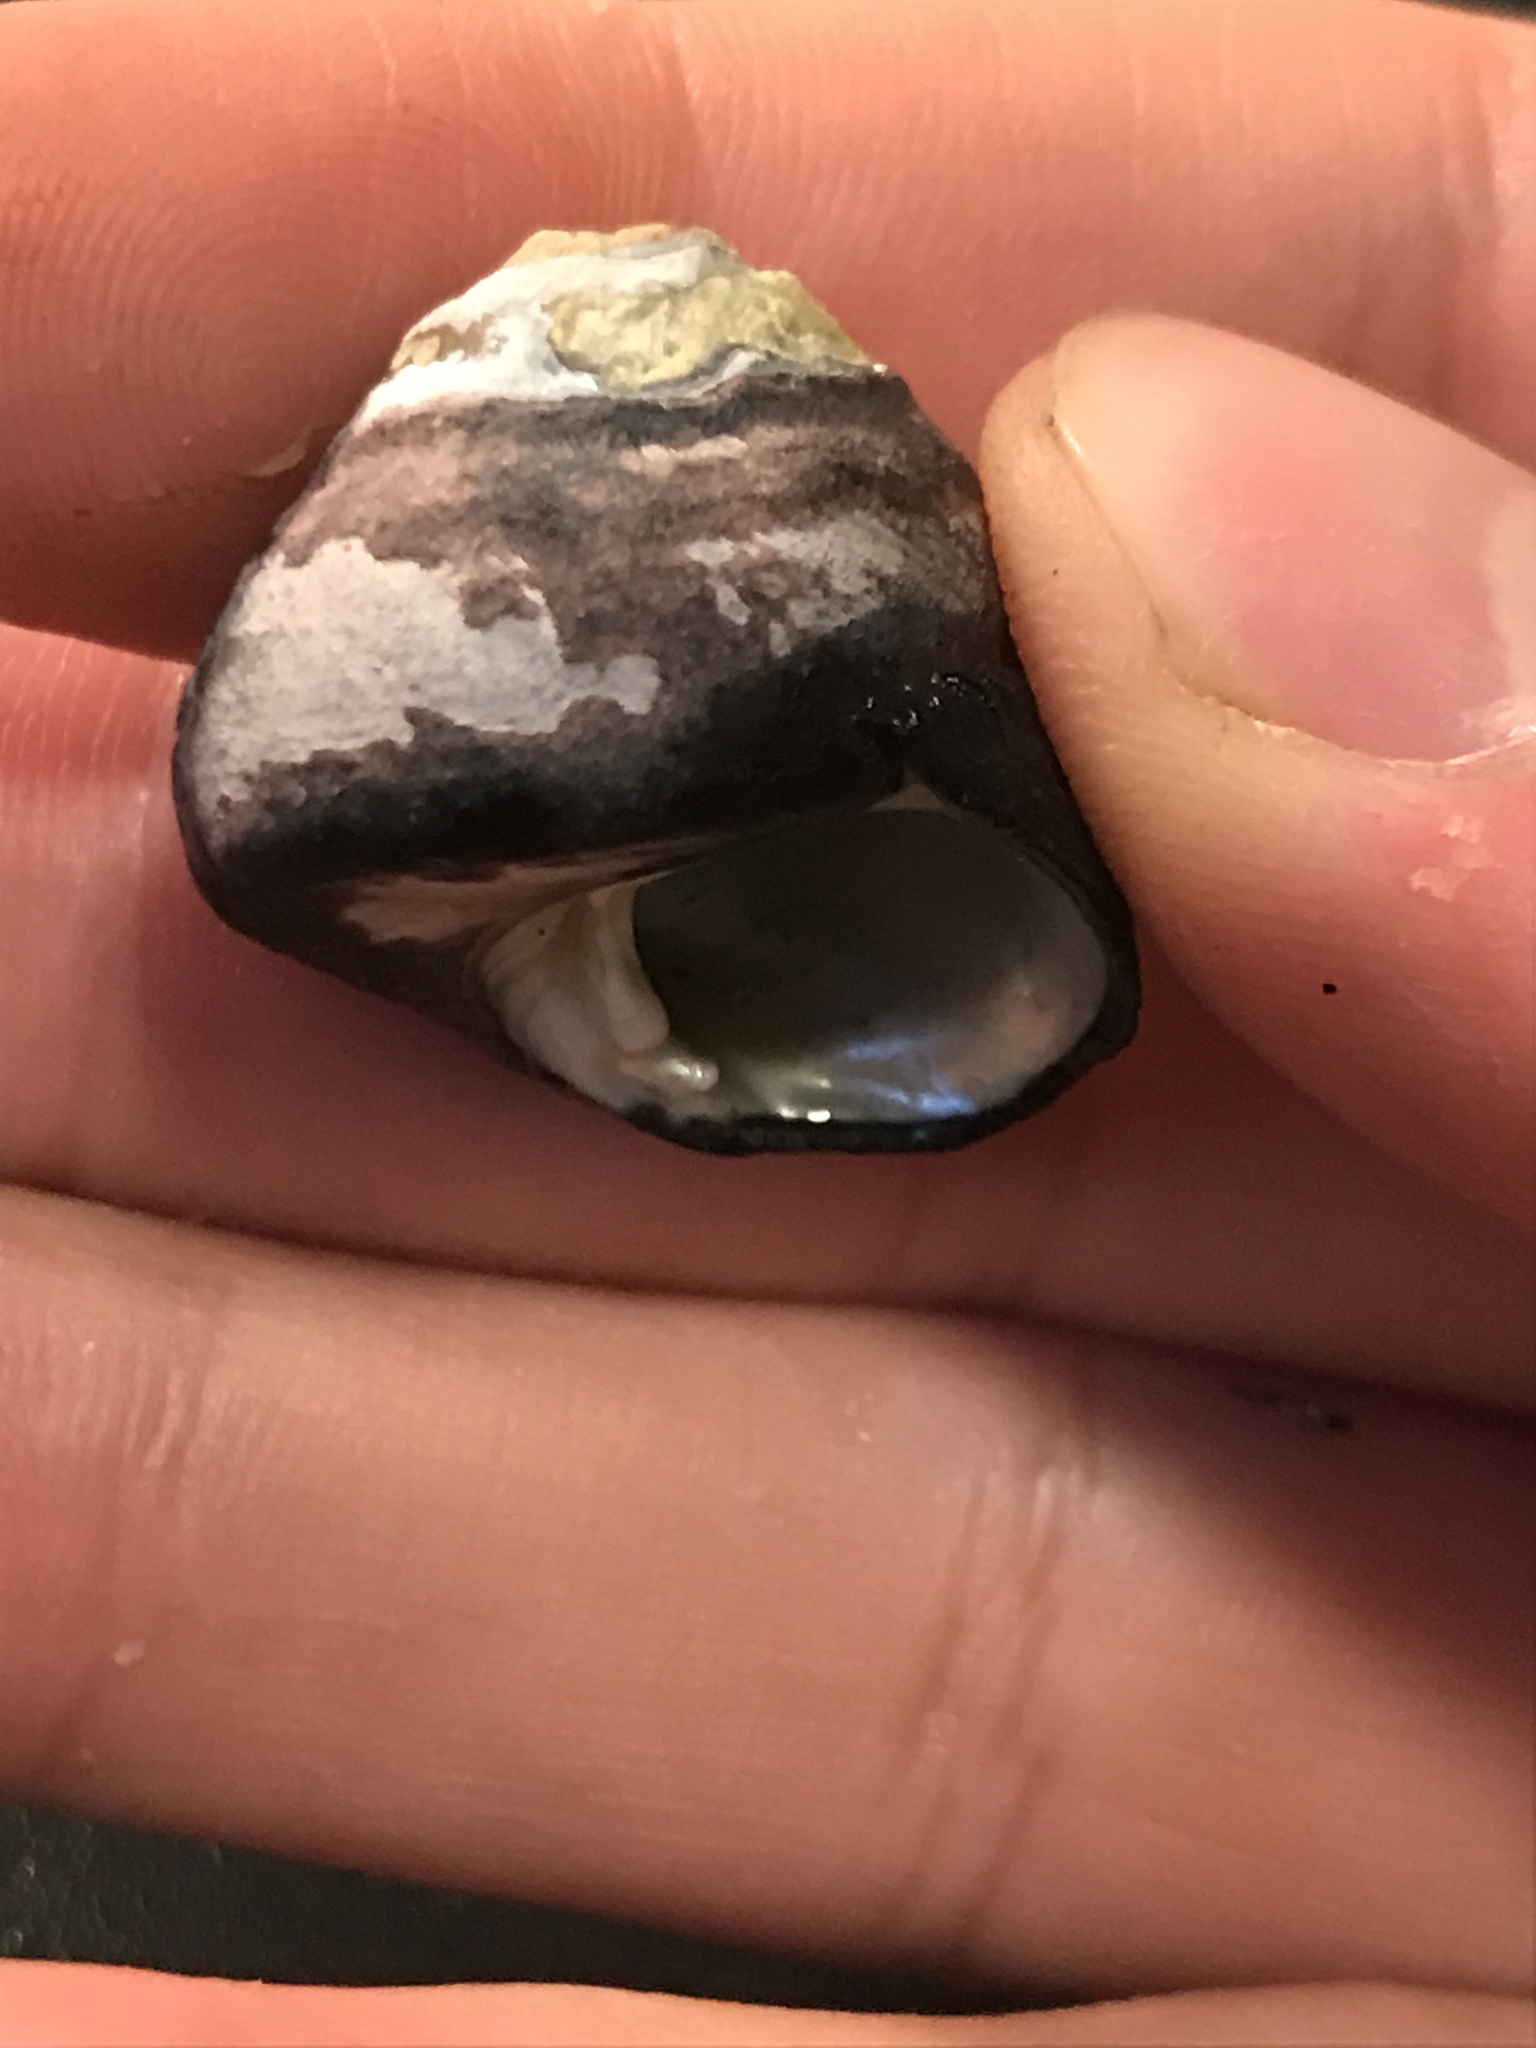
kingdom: Animalia
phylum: Mollusca
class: Gastropoda
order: Trochida
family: Tegulidae
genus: Tegula
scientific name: Tegula funebralis
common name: Black tegula
